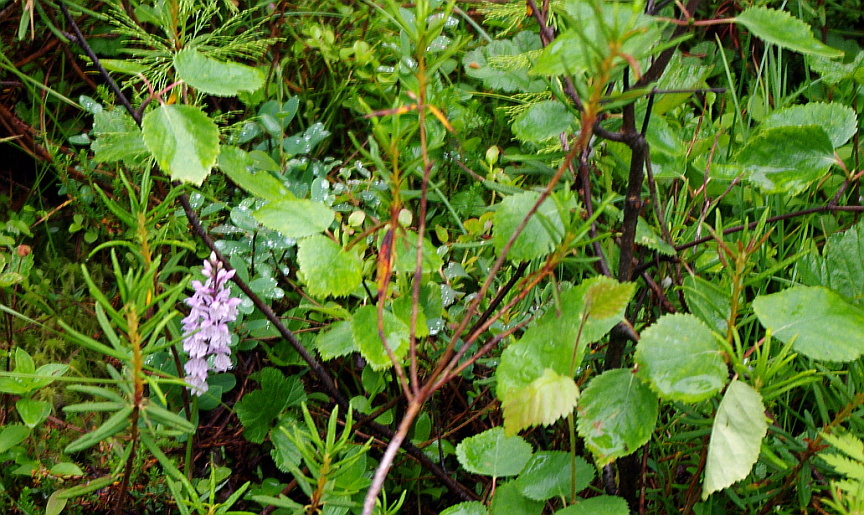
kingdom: Plantae
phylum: Tracheophyta
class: Magnoliopsida
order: Fagales
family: Betulaceae
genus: Betula
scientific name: Betula pubescens
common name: Downy birch
